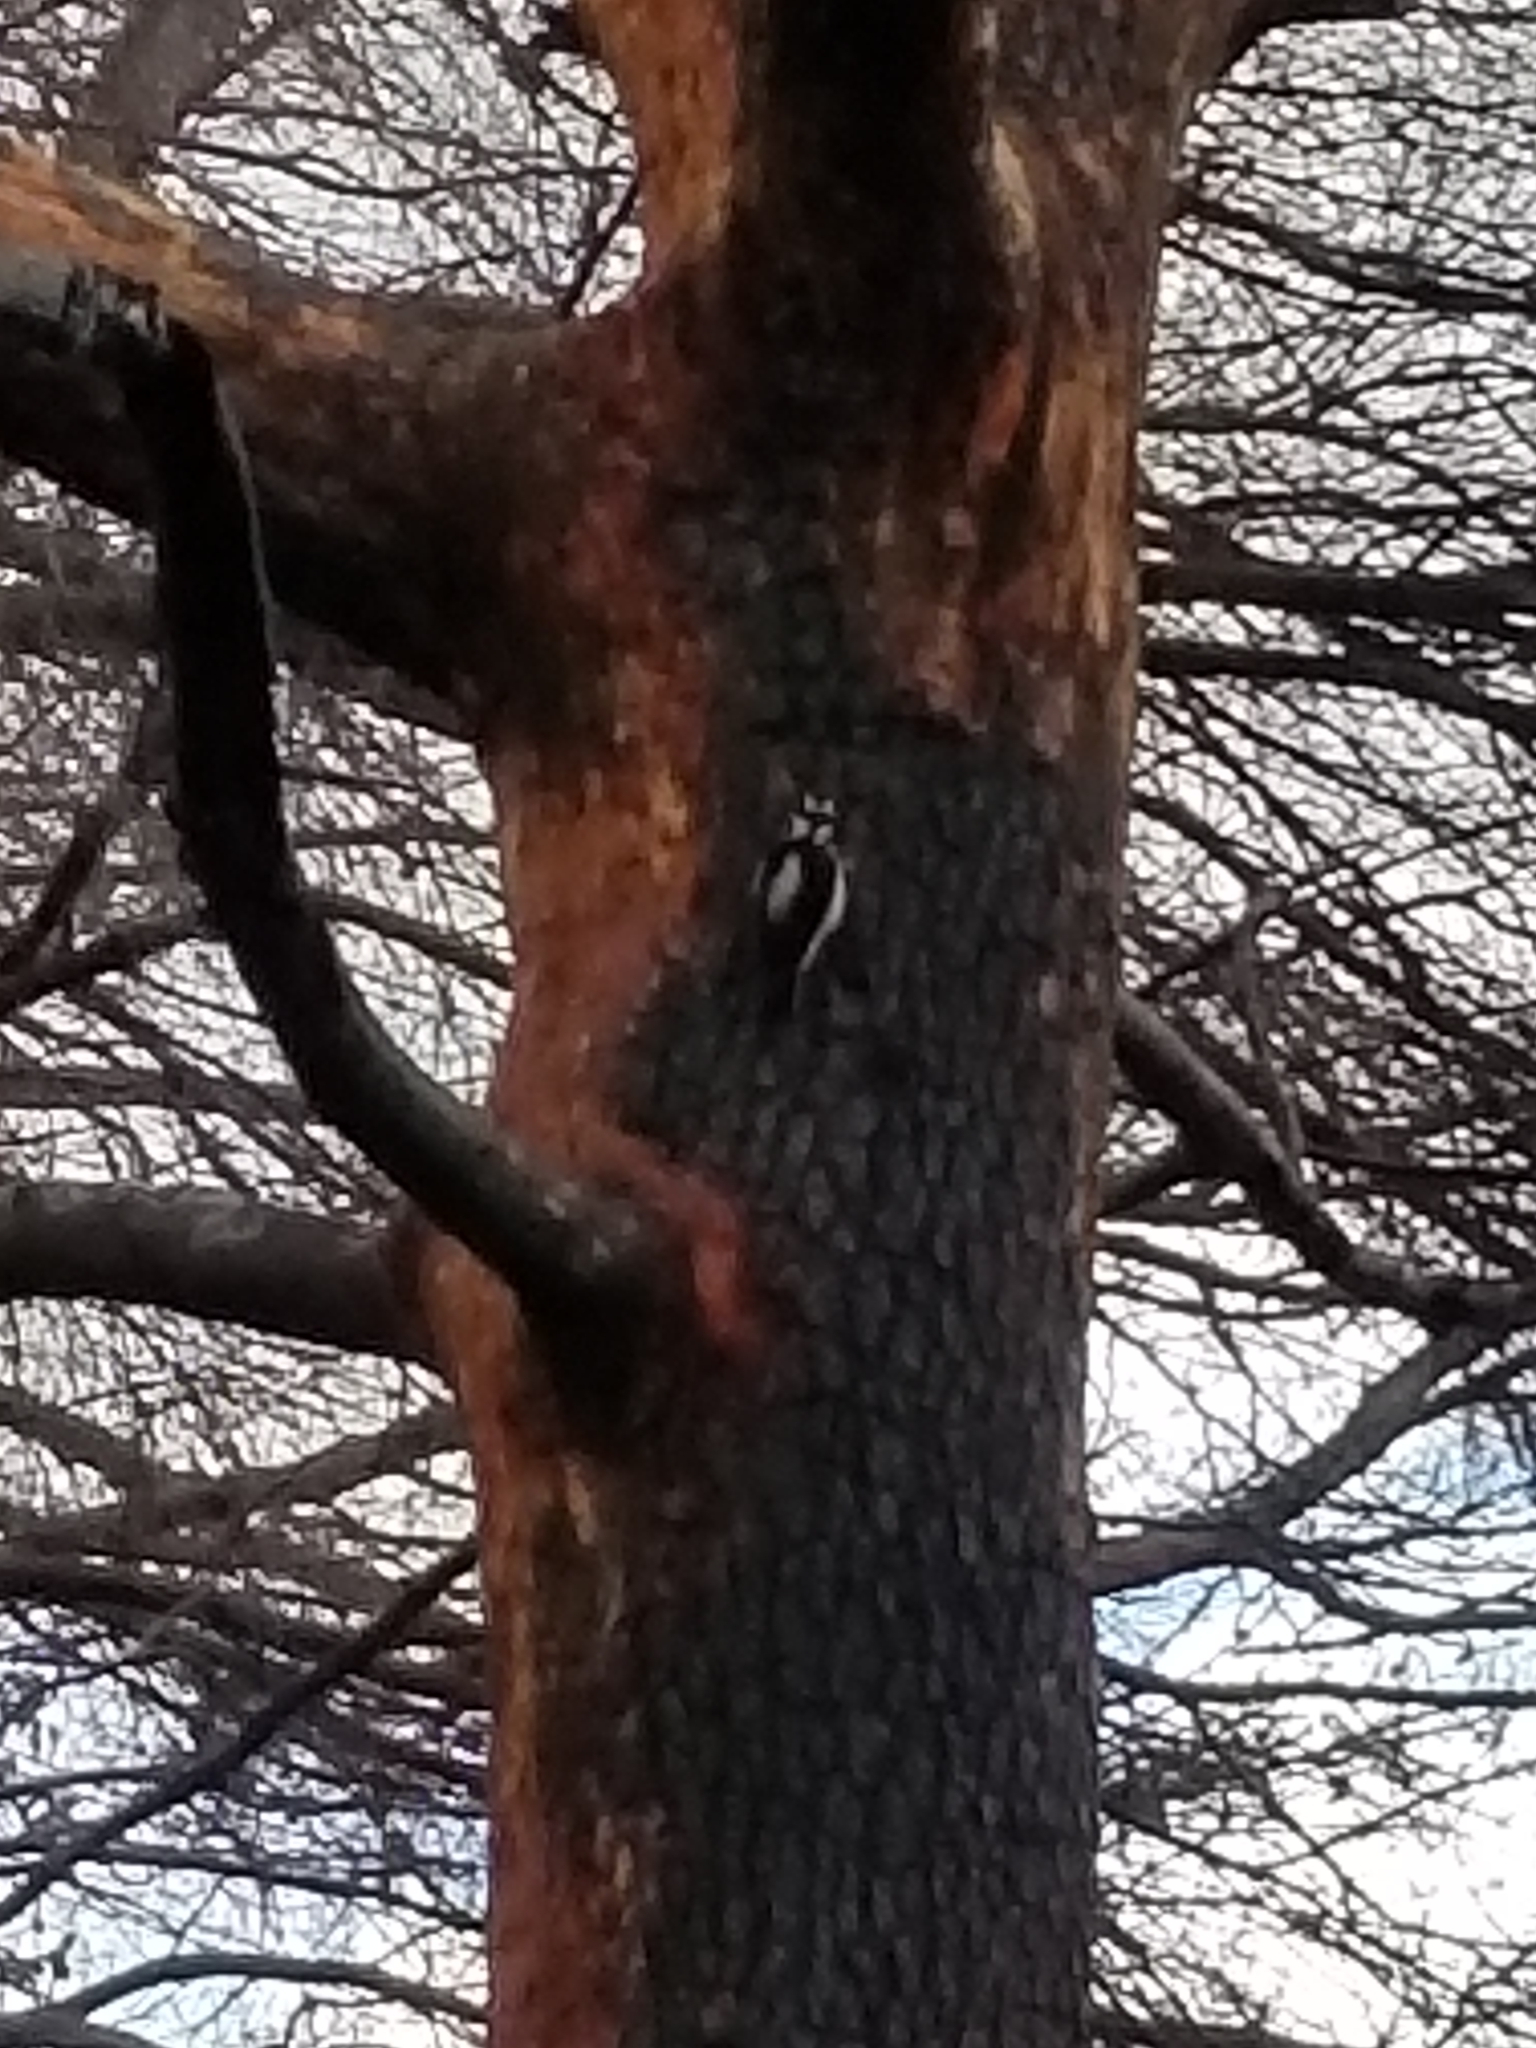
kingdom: Animalia
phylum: Chordata
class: Aves
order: Piciformes
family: Picidae
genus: Dryobates
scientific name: Dryobates pubescens
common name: Downy woodpecker
